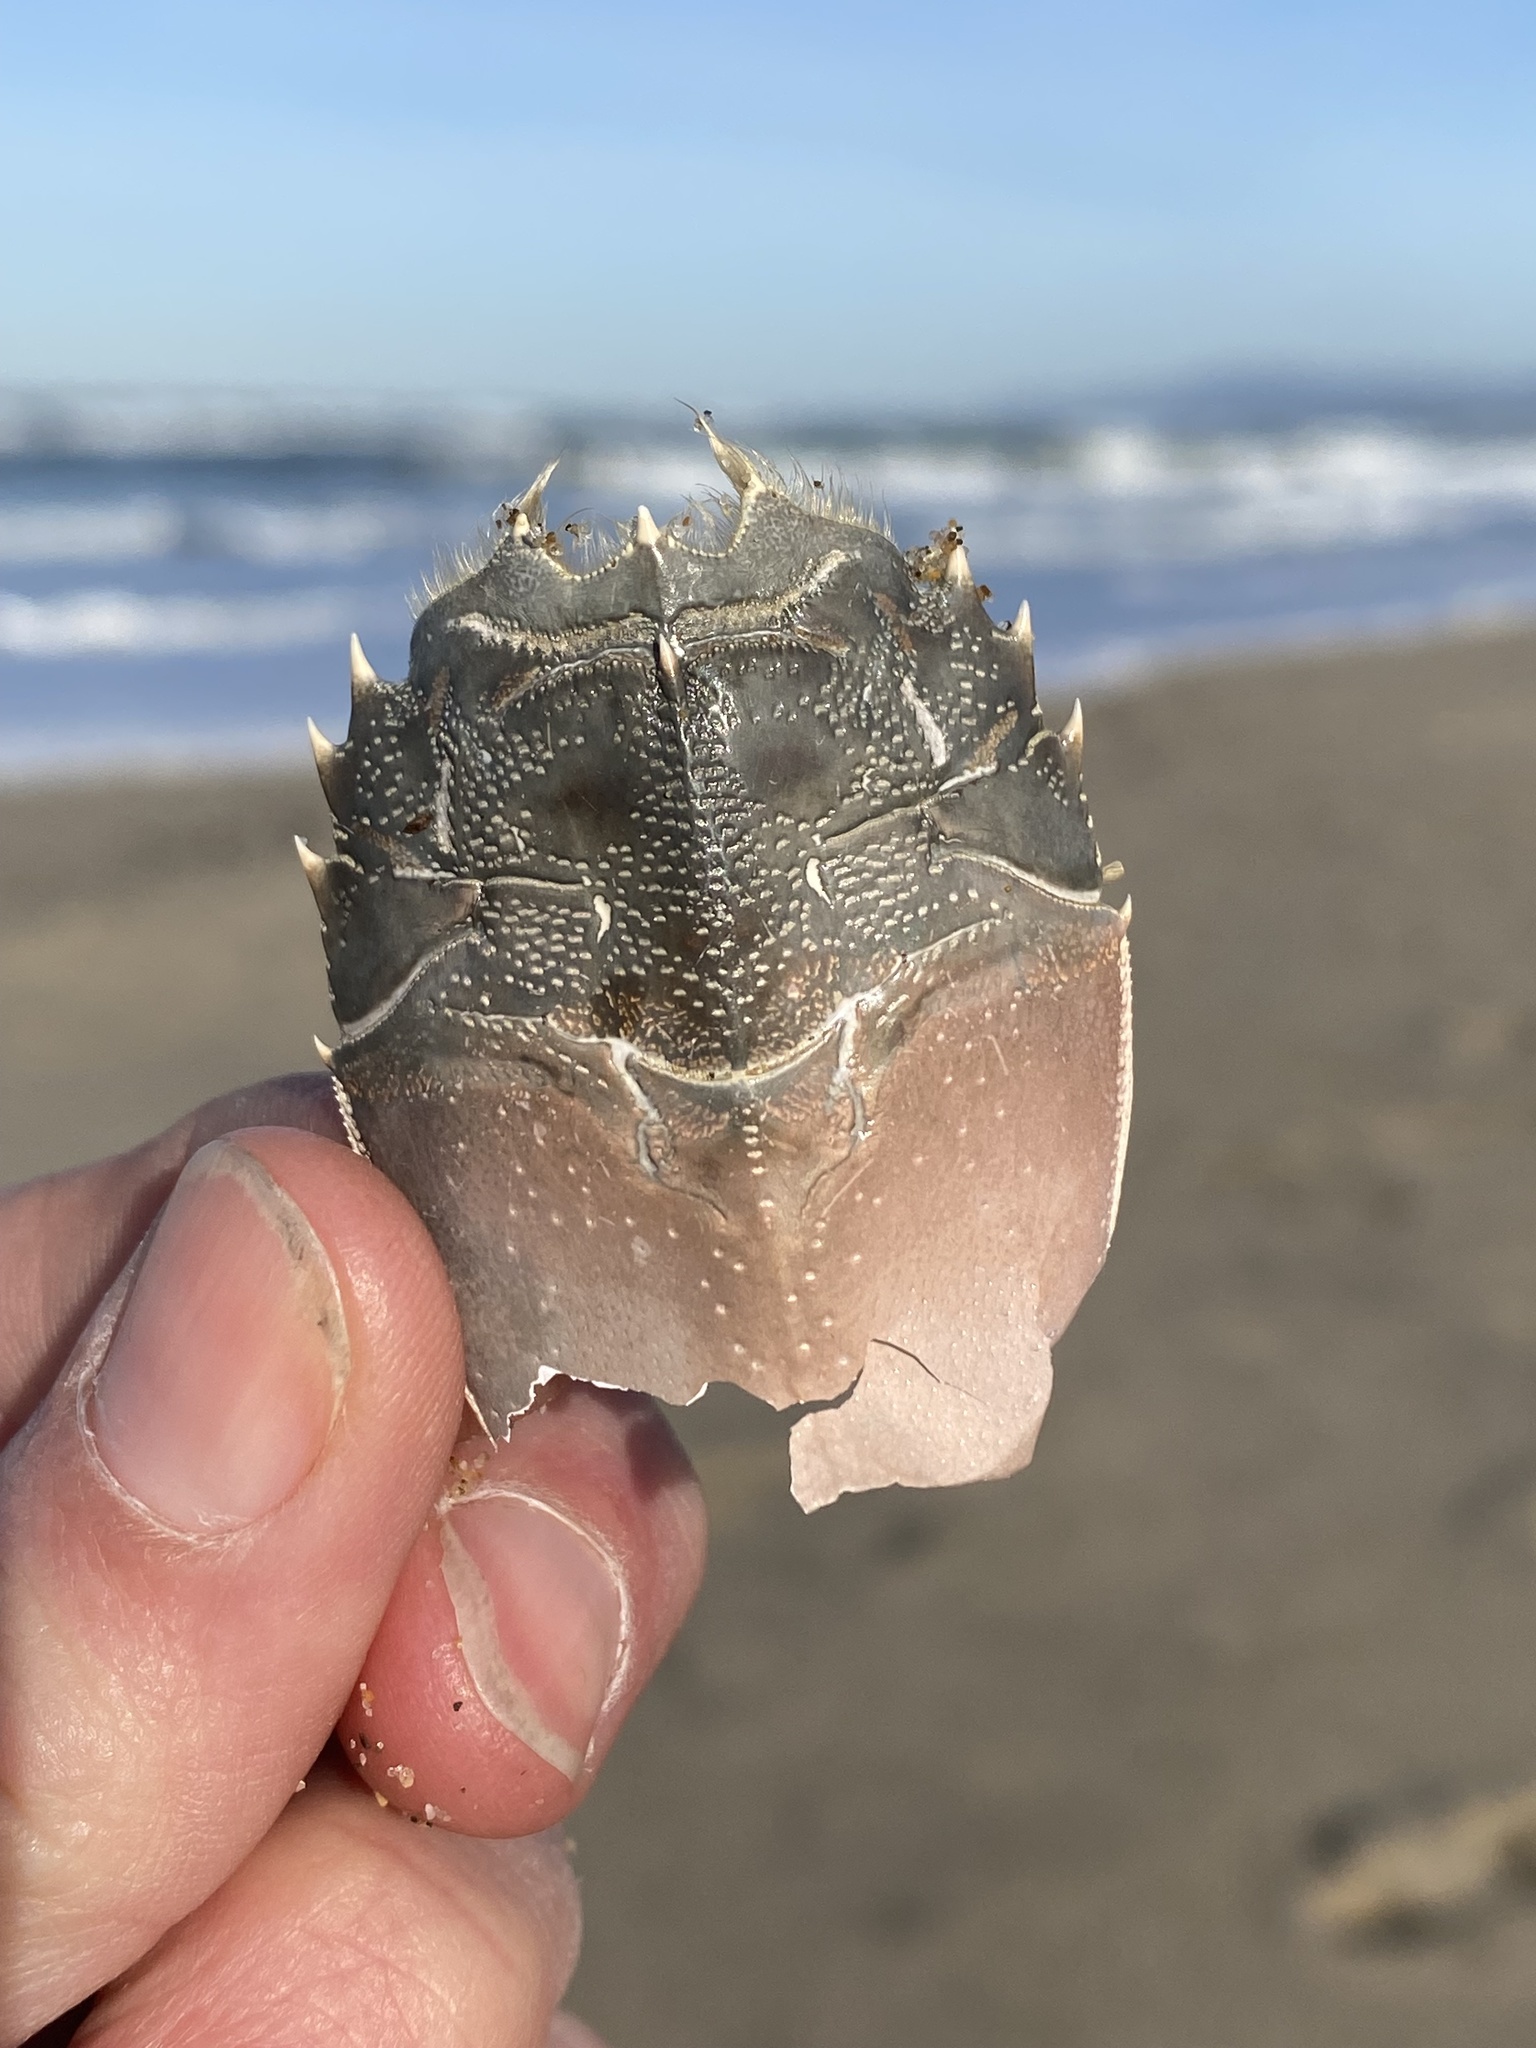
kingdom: Animalia
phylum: Arthropoda
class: Malacostraca
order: Decapoda
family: Blepharipodidae
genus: Blepharipoda
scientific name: Blepharipoda occidentalis
